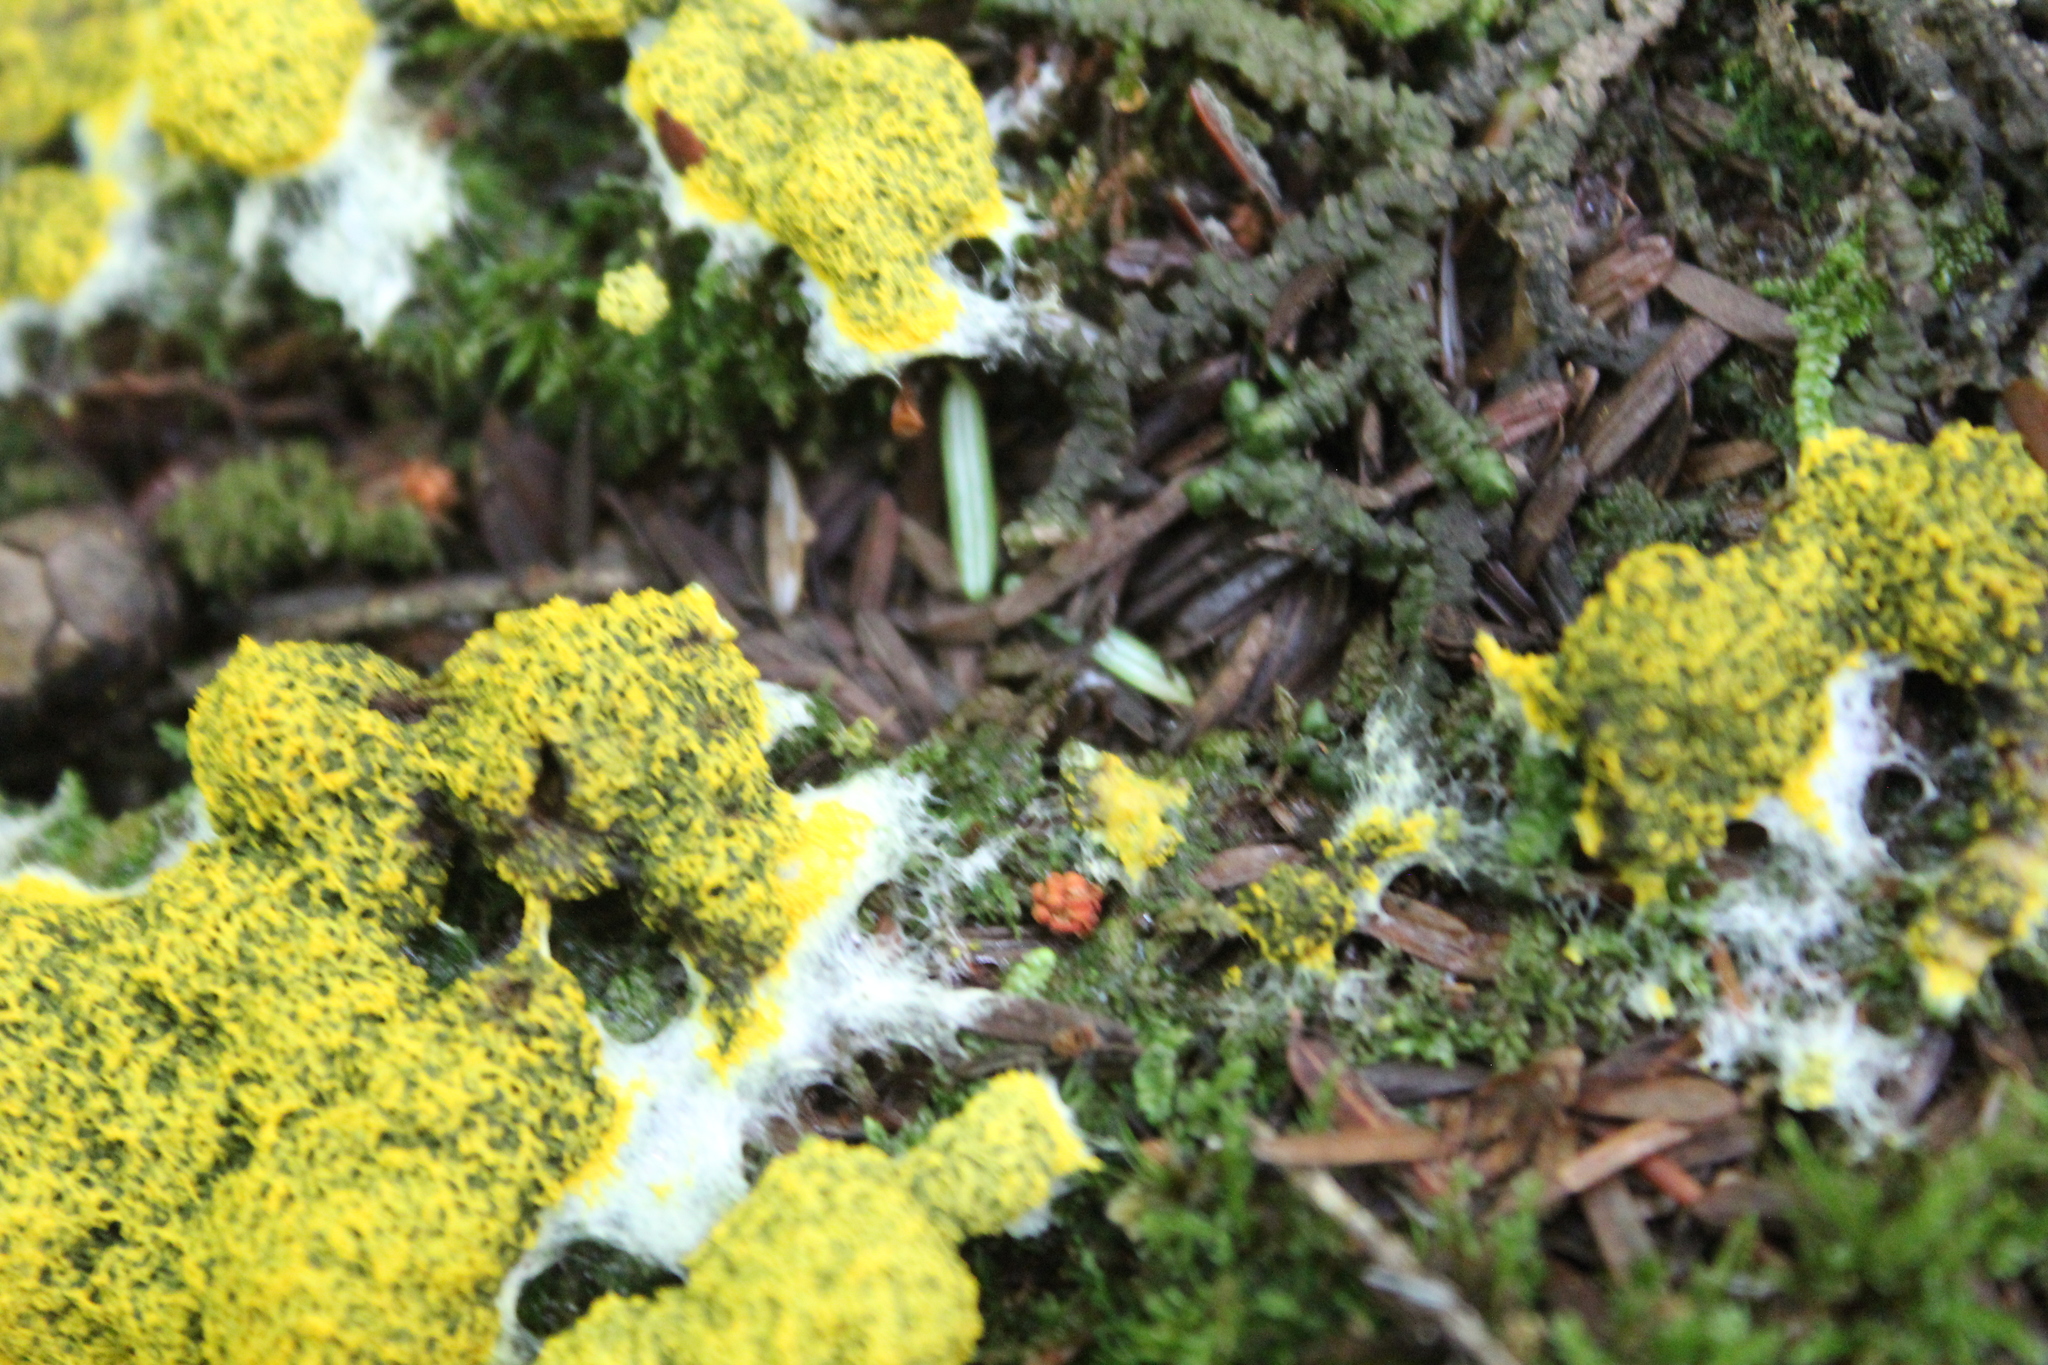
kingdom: Protozoa
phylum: Mycetozoa
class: Myxomycetes
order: Physarales
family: Physaraceae
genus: Fuligo
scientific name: Fuligo septica
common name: Dog vomit slime mold
